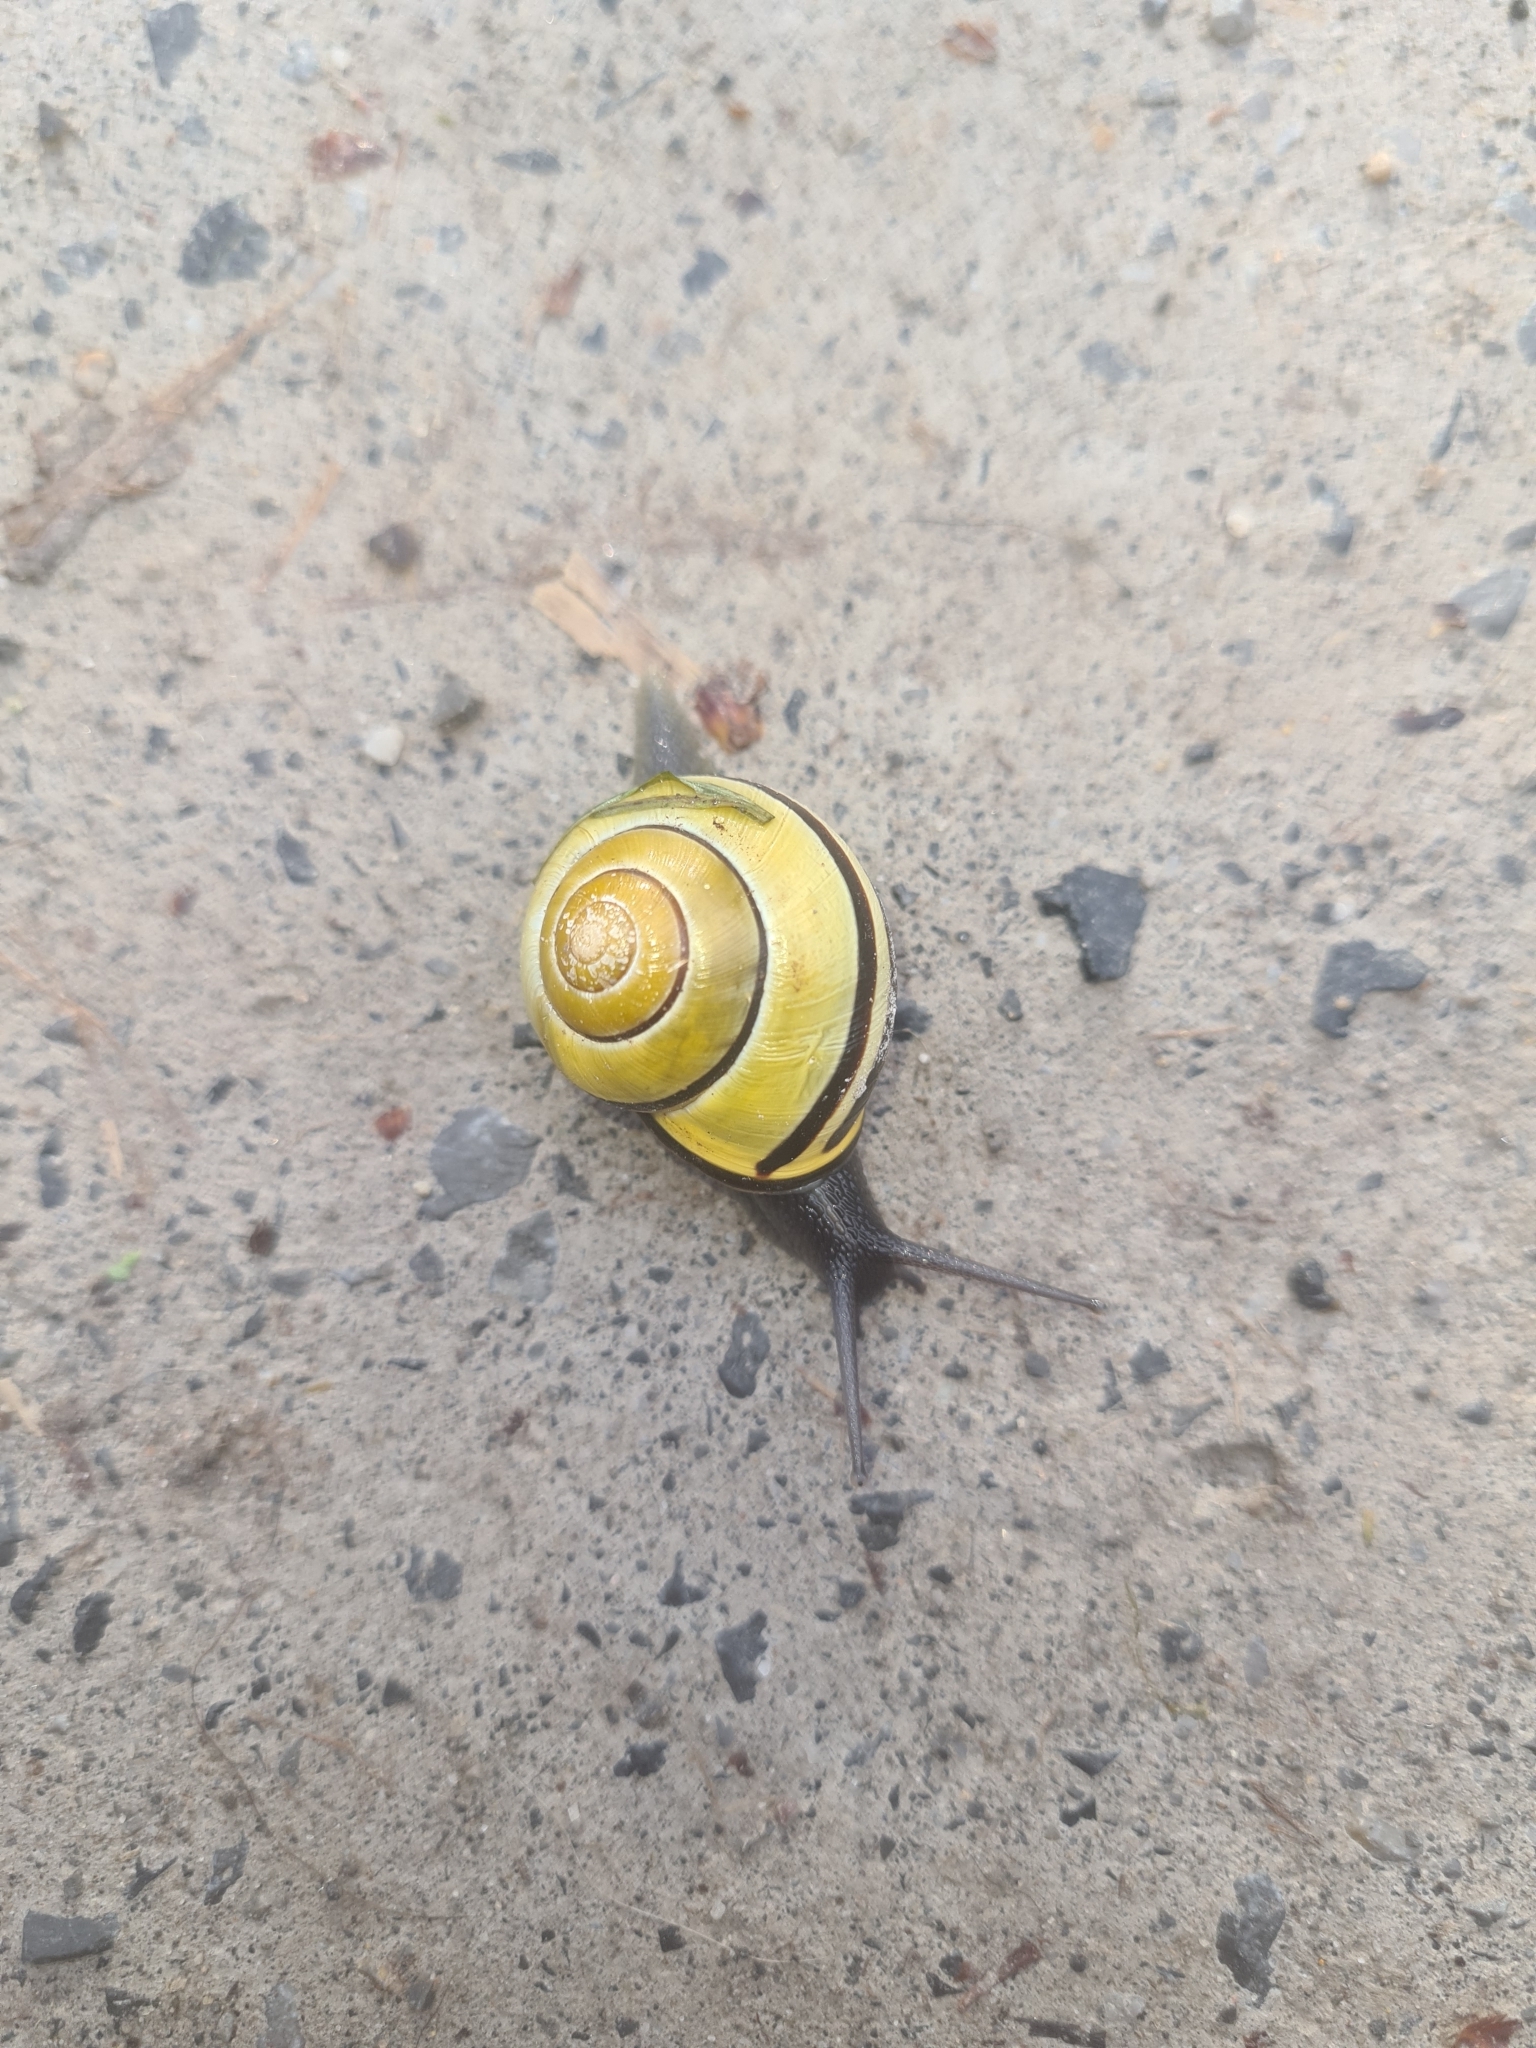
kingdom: Animalia
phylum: Mollusca
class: Gastropoda
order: Stylommatophora
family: Helicidae
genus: Cepaea
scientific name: Cepaea nemoralis
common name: Grovesnail
